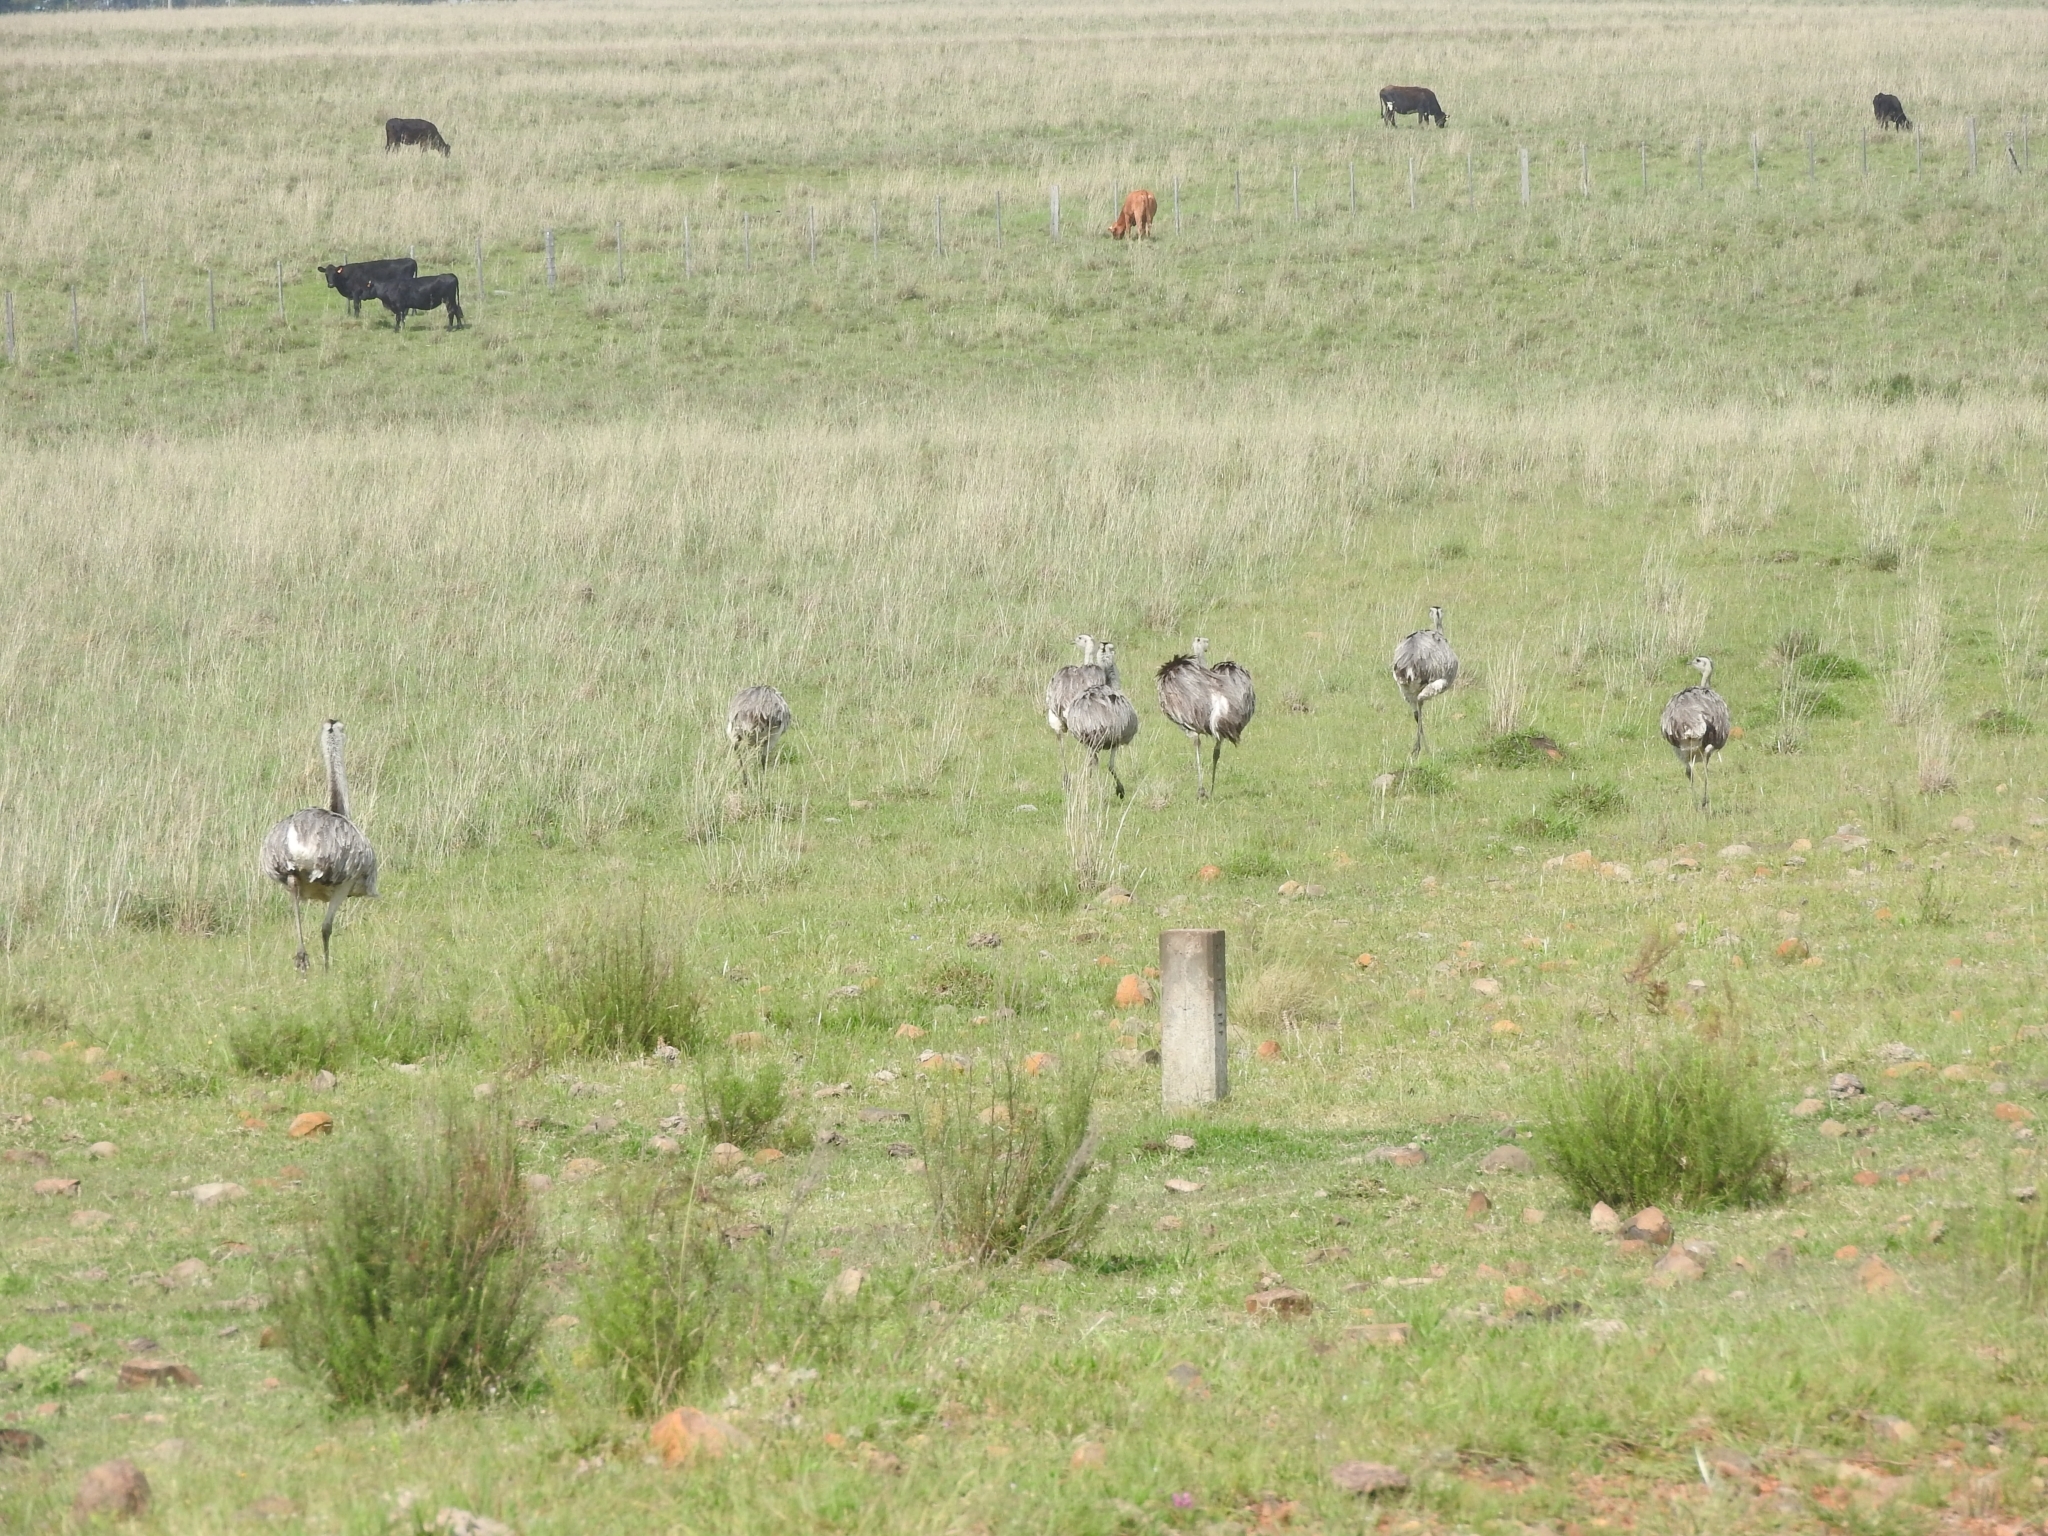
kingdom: Animalia
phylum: Chordata
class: Aves
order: Rheiformes
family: Rheidae
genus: Rhea
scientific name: Rhea americana
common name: Greater rhea
